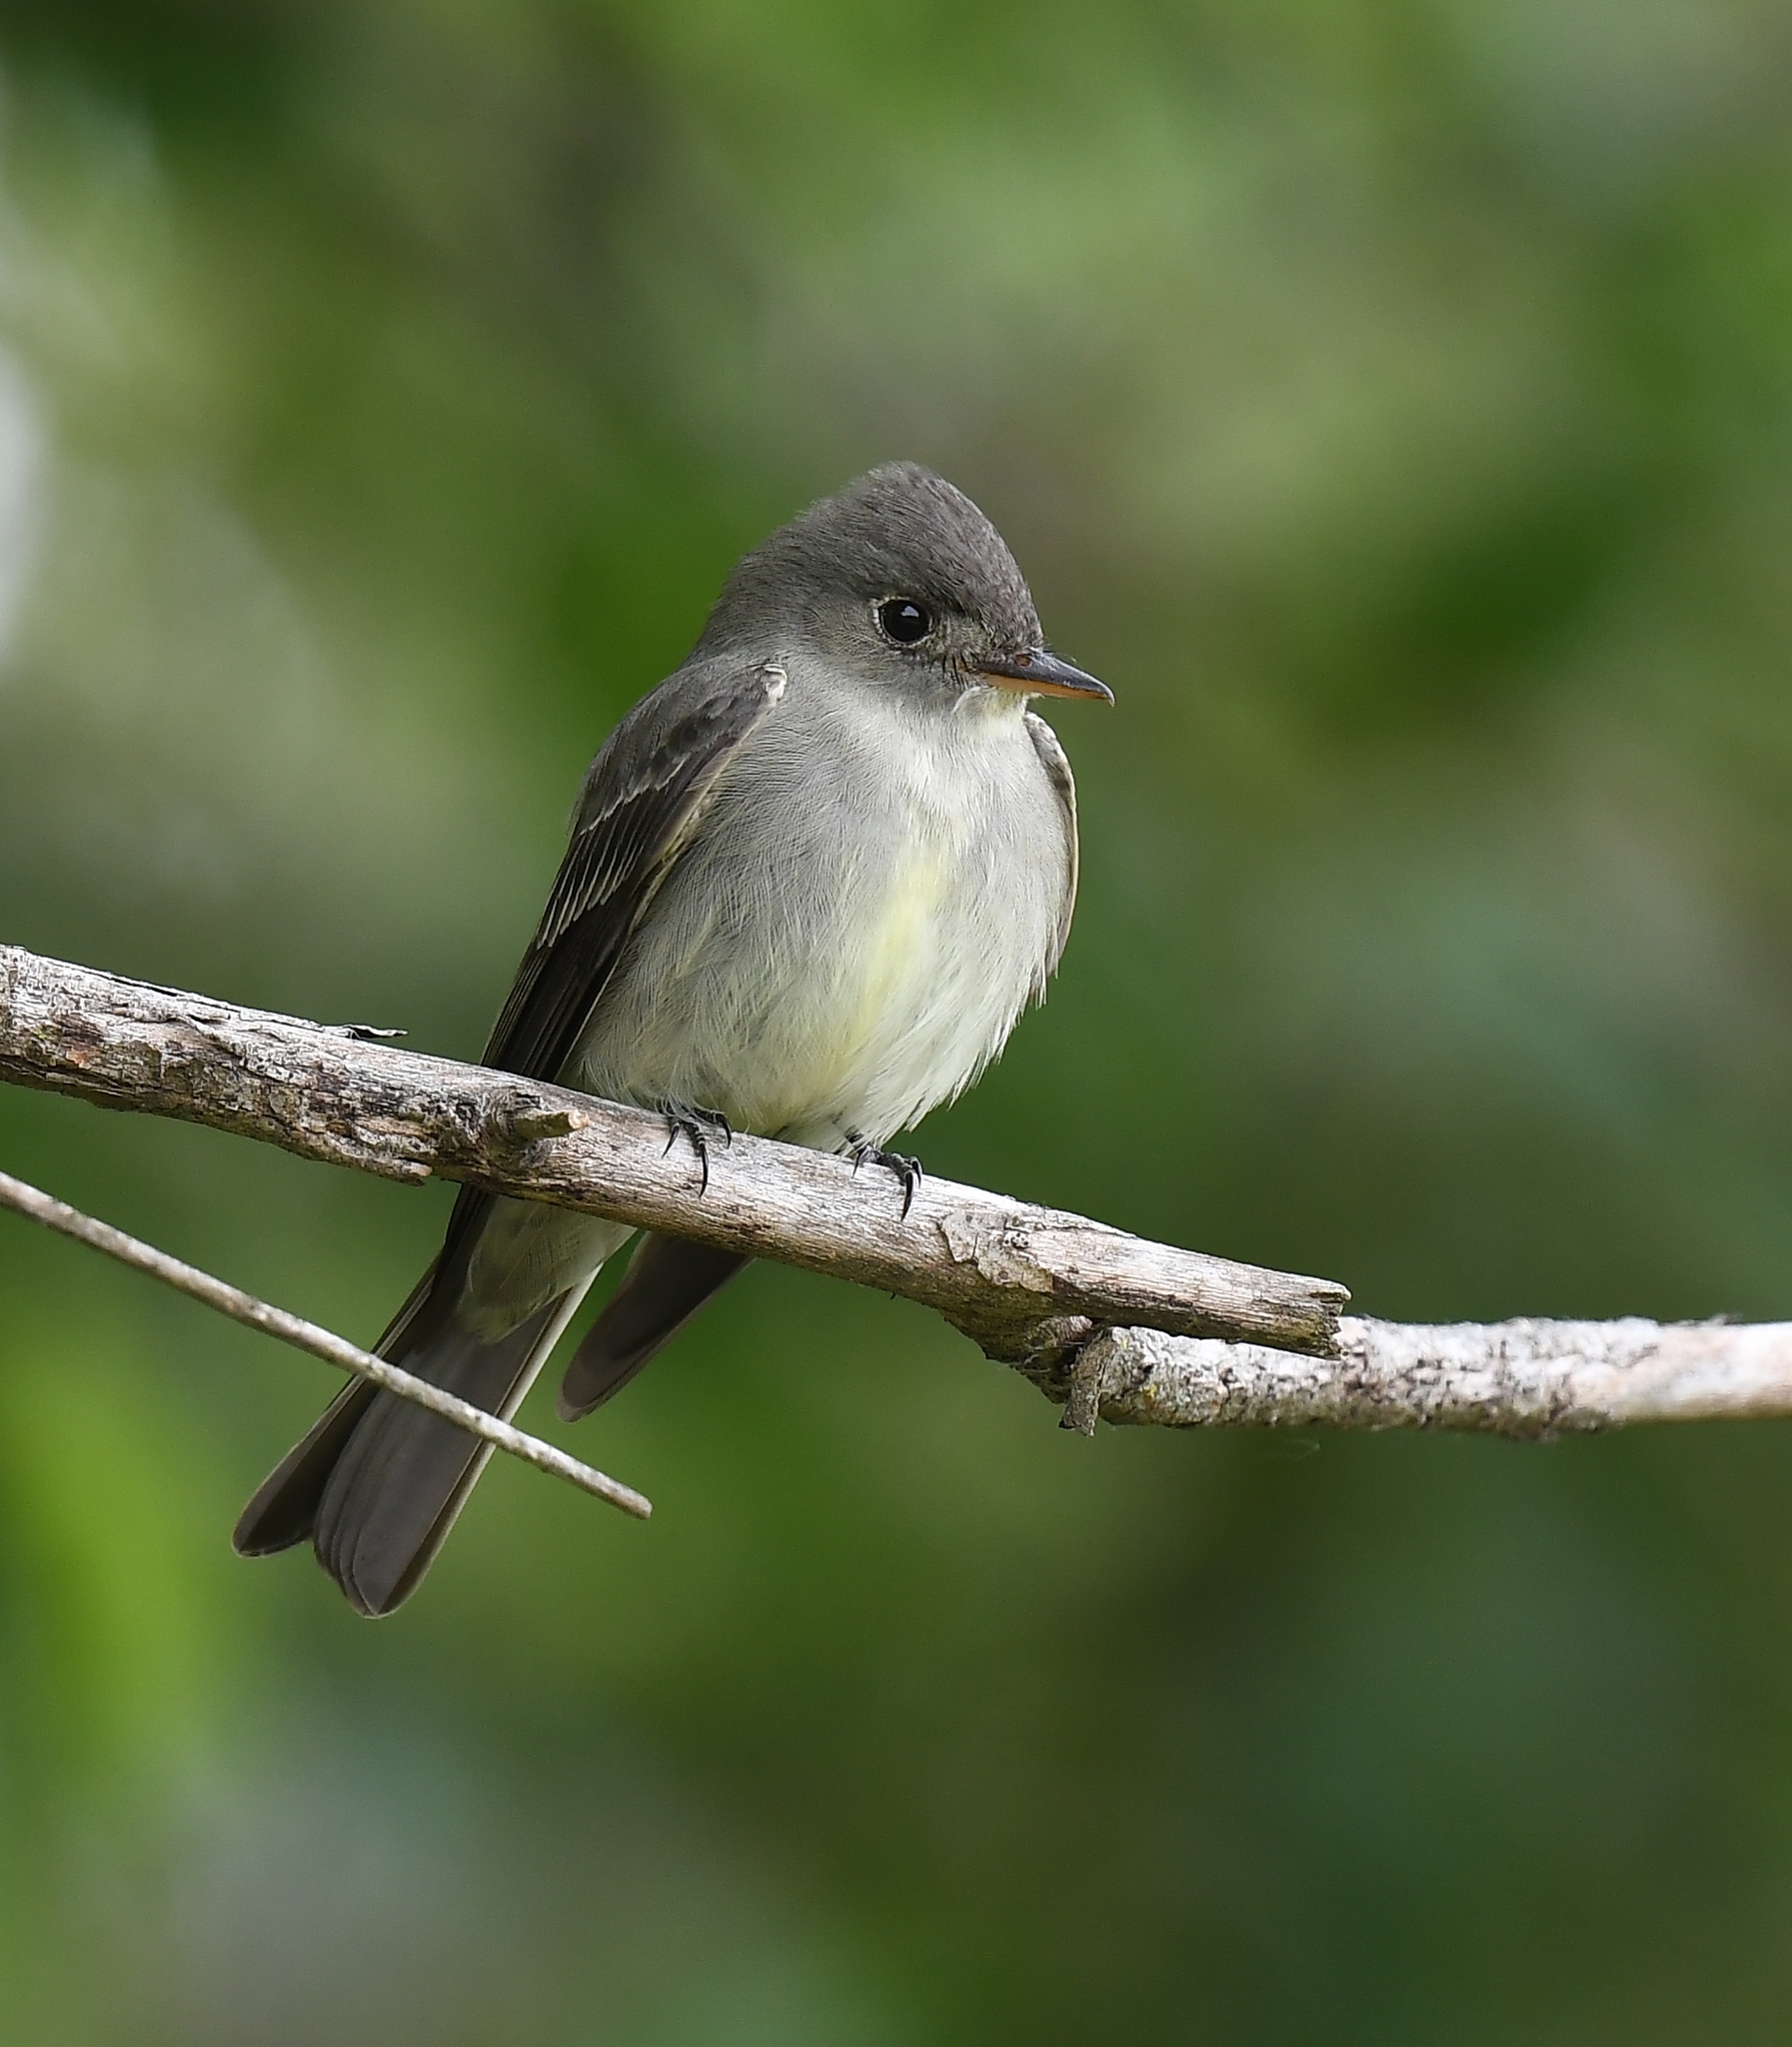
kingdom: Animalia
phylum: Chordata
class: Aves
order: Passeriformes
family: Tyrannidae
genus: Contopus
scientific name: Contopus virens
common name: Eastern wood-pewee
